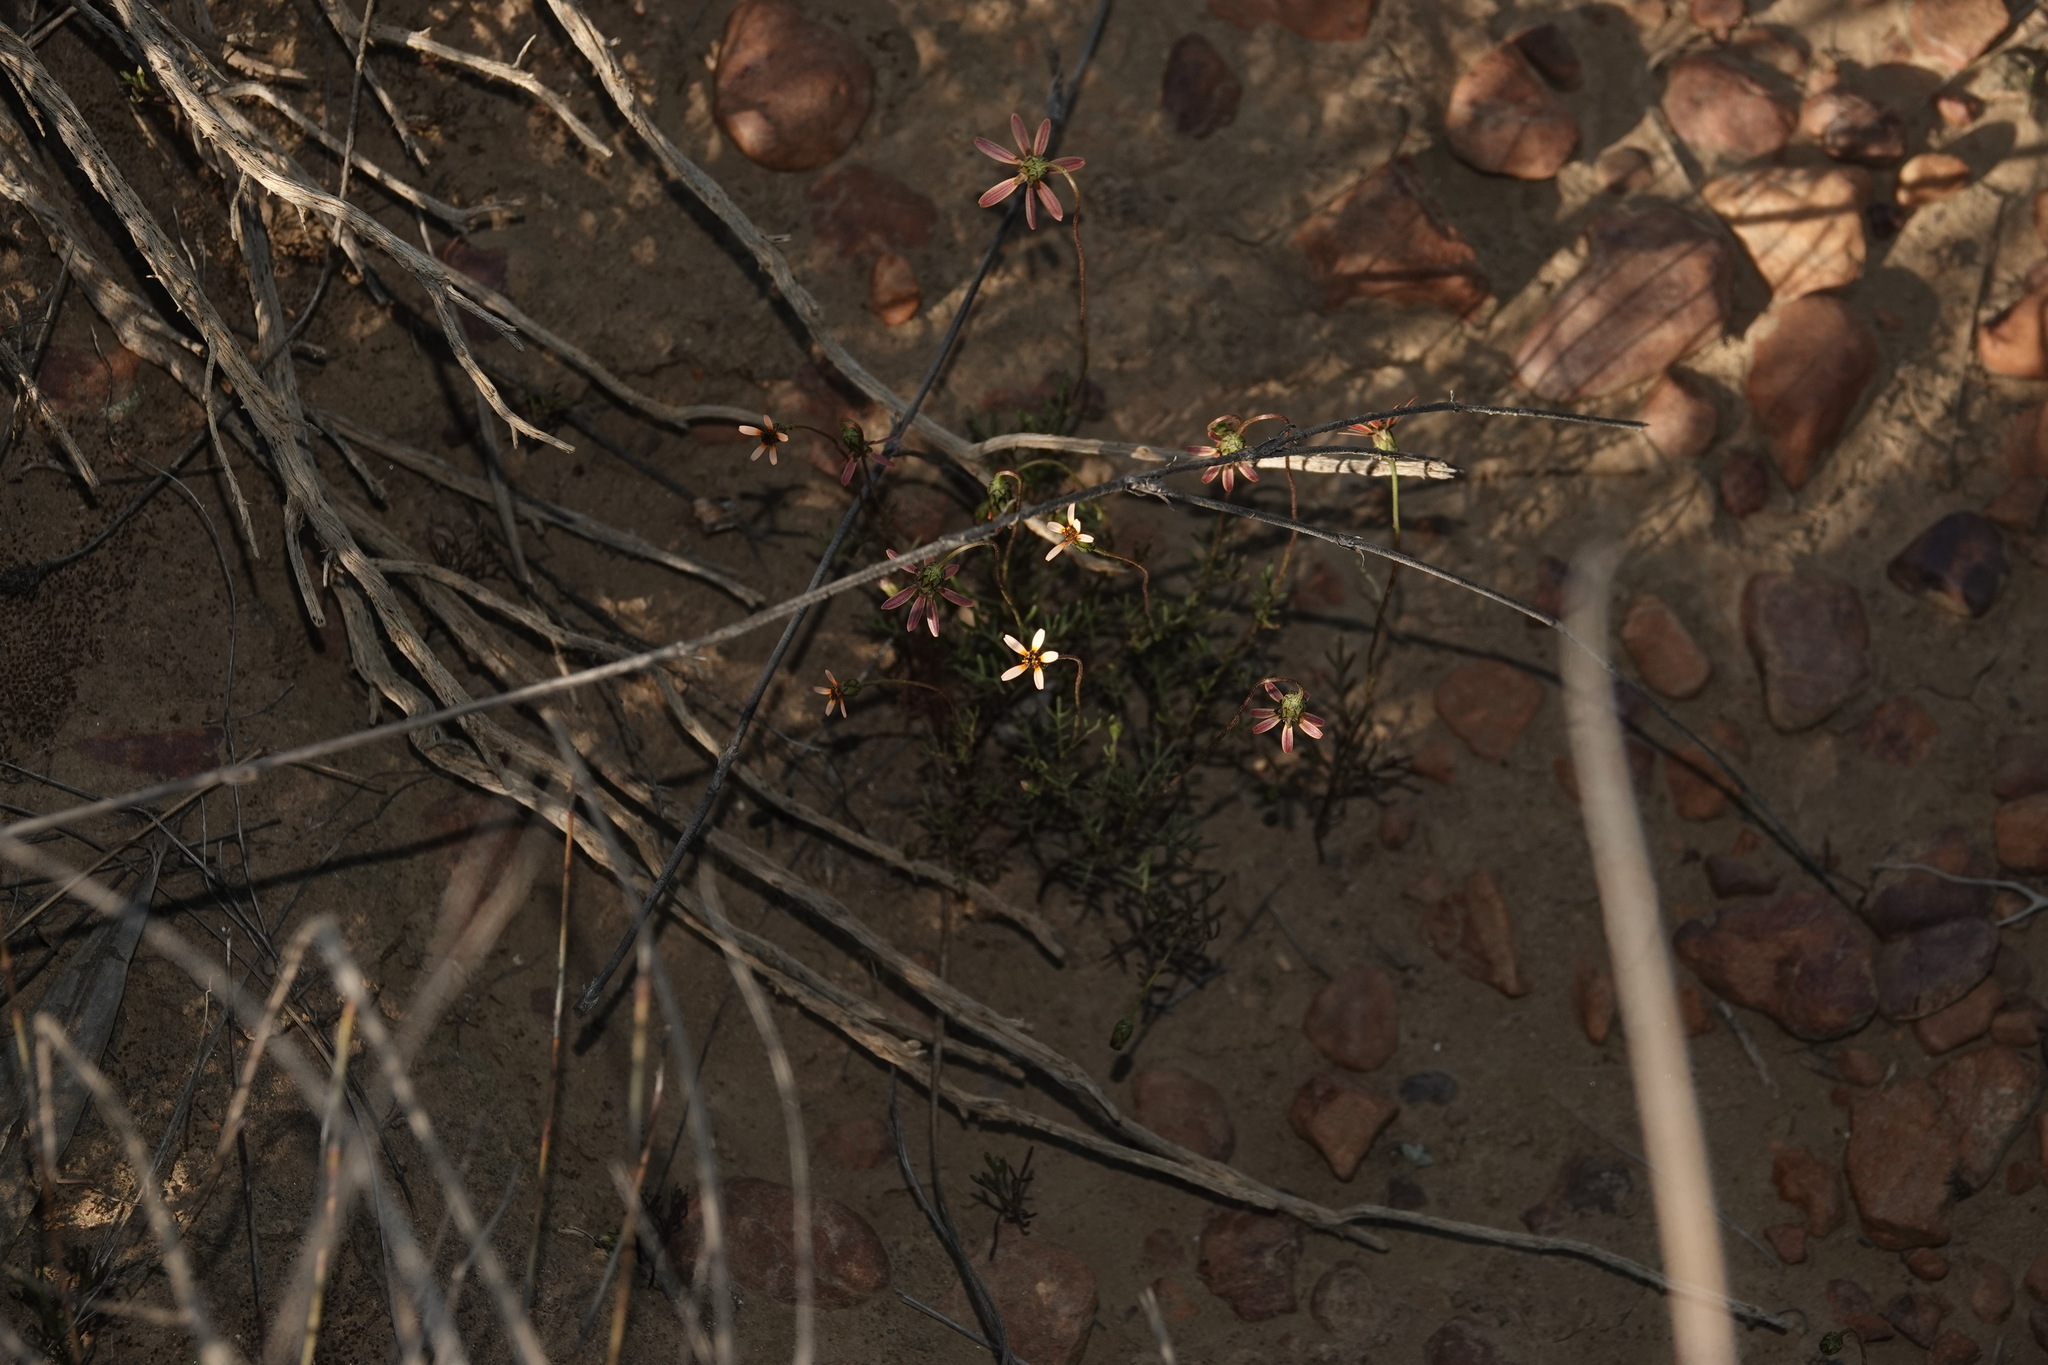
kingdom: Plantae
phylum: Tracheophyta
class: Magnoliopsida
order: Asterales
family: Asteraceae
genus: Ursinia
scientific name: Ursinia anthemoides
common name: Ursinia
